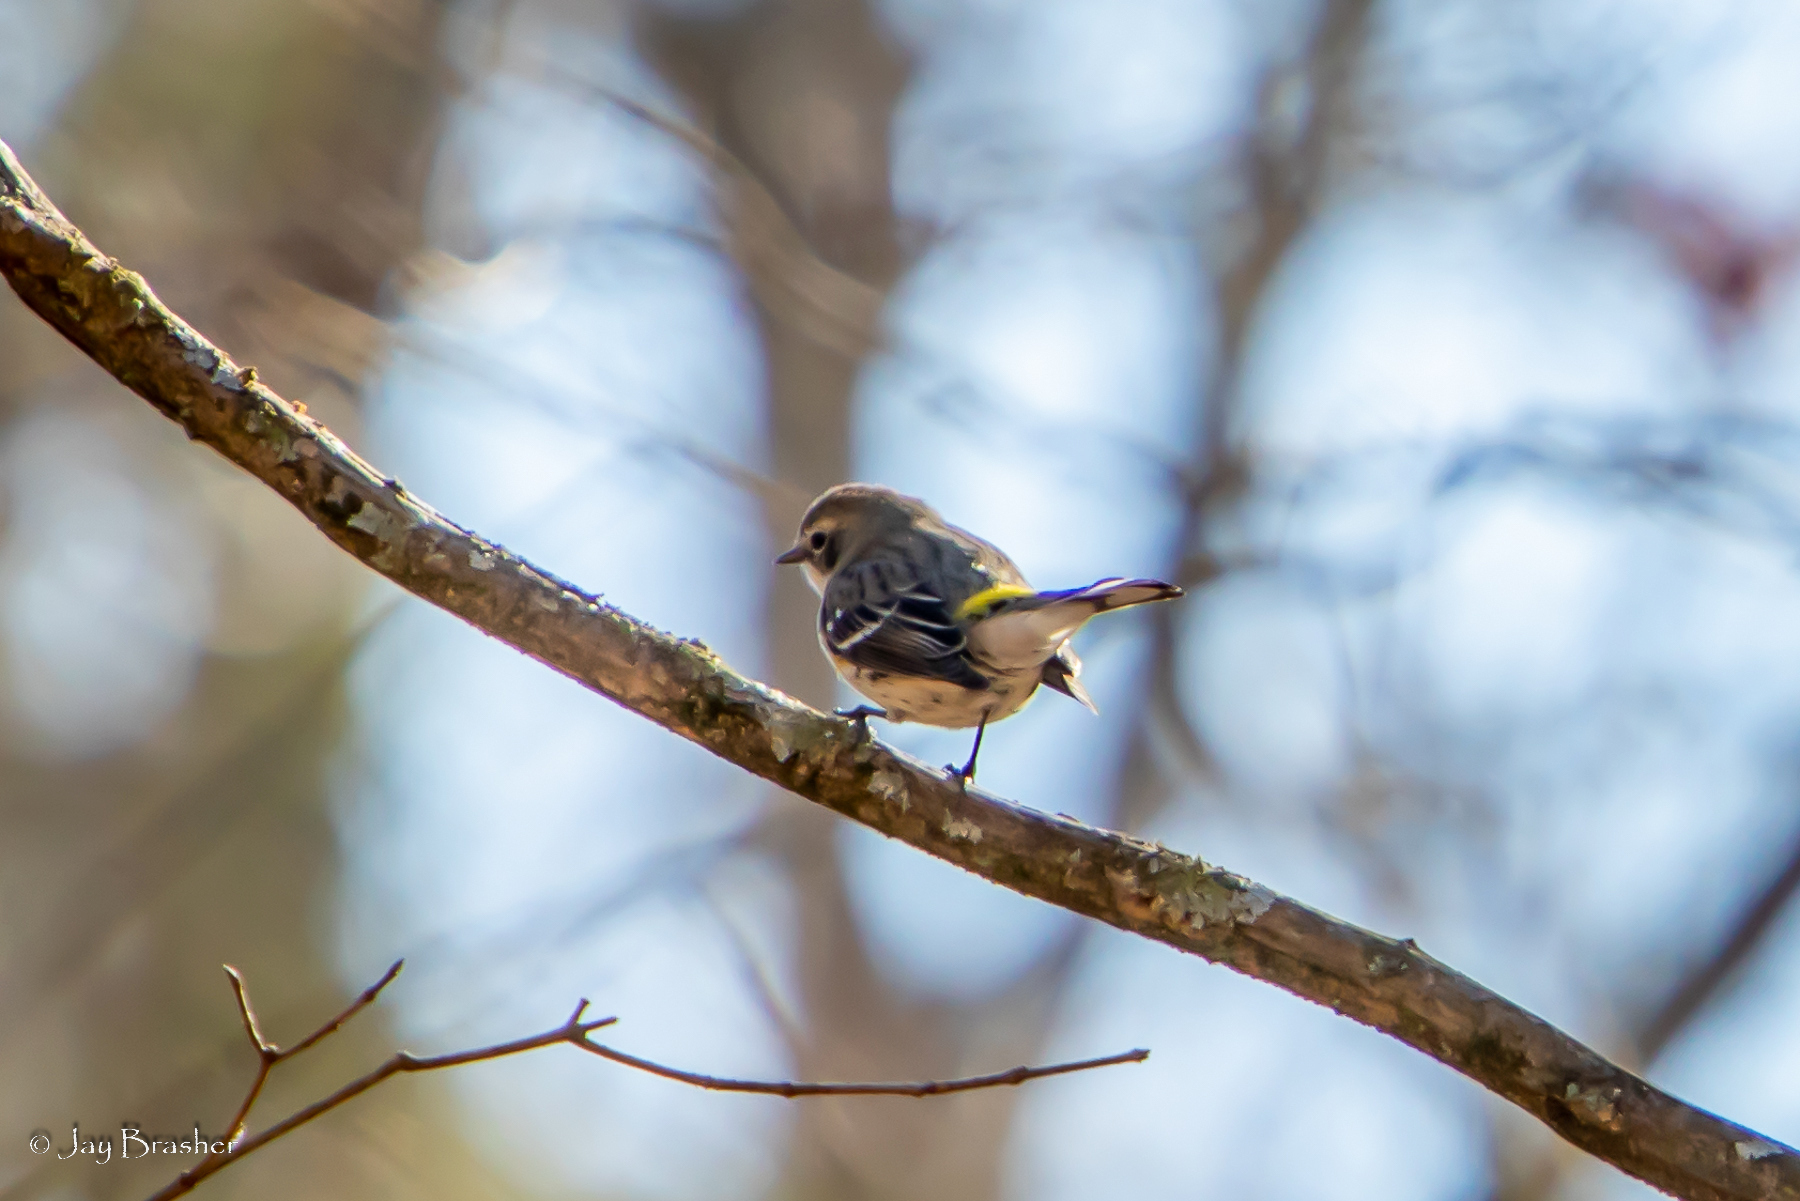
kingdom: Animalia
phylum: Chordata
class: Aves
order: Passeriformes
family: Parulidae
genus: Setophaga
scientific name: Setophaga coronata
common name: Myrtle warbler
